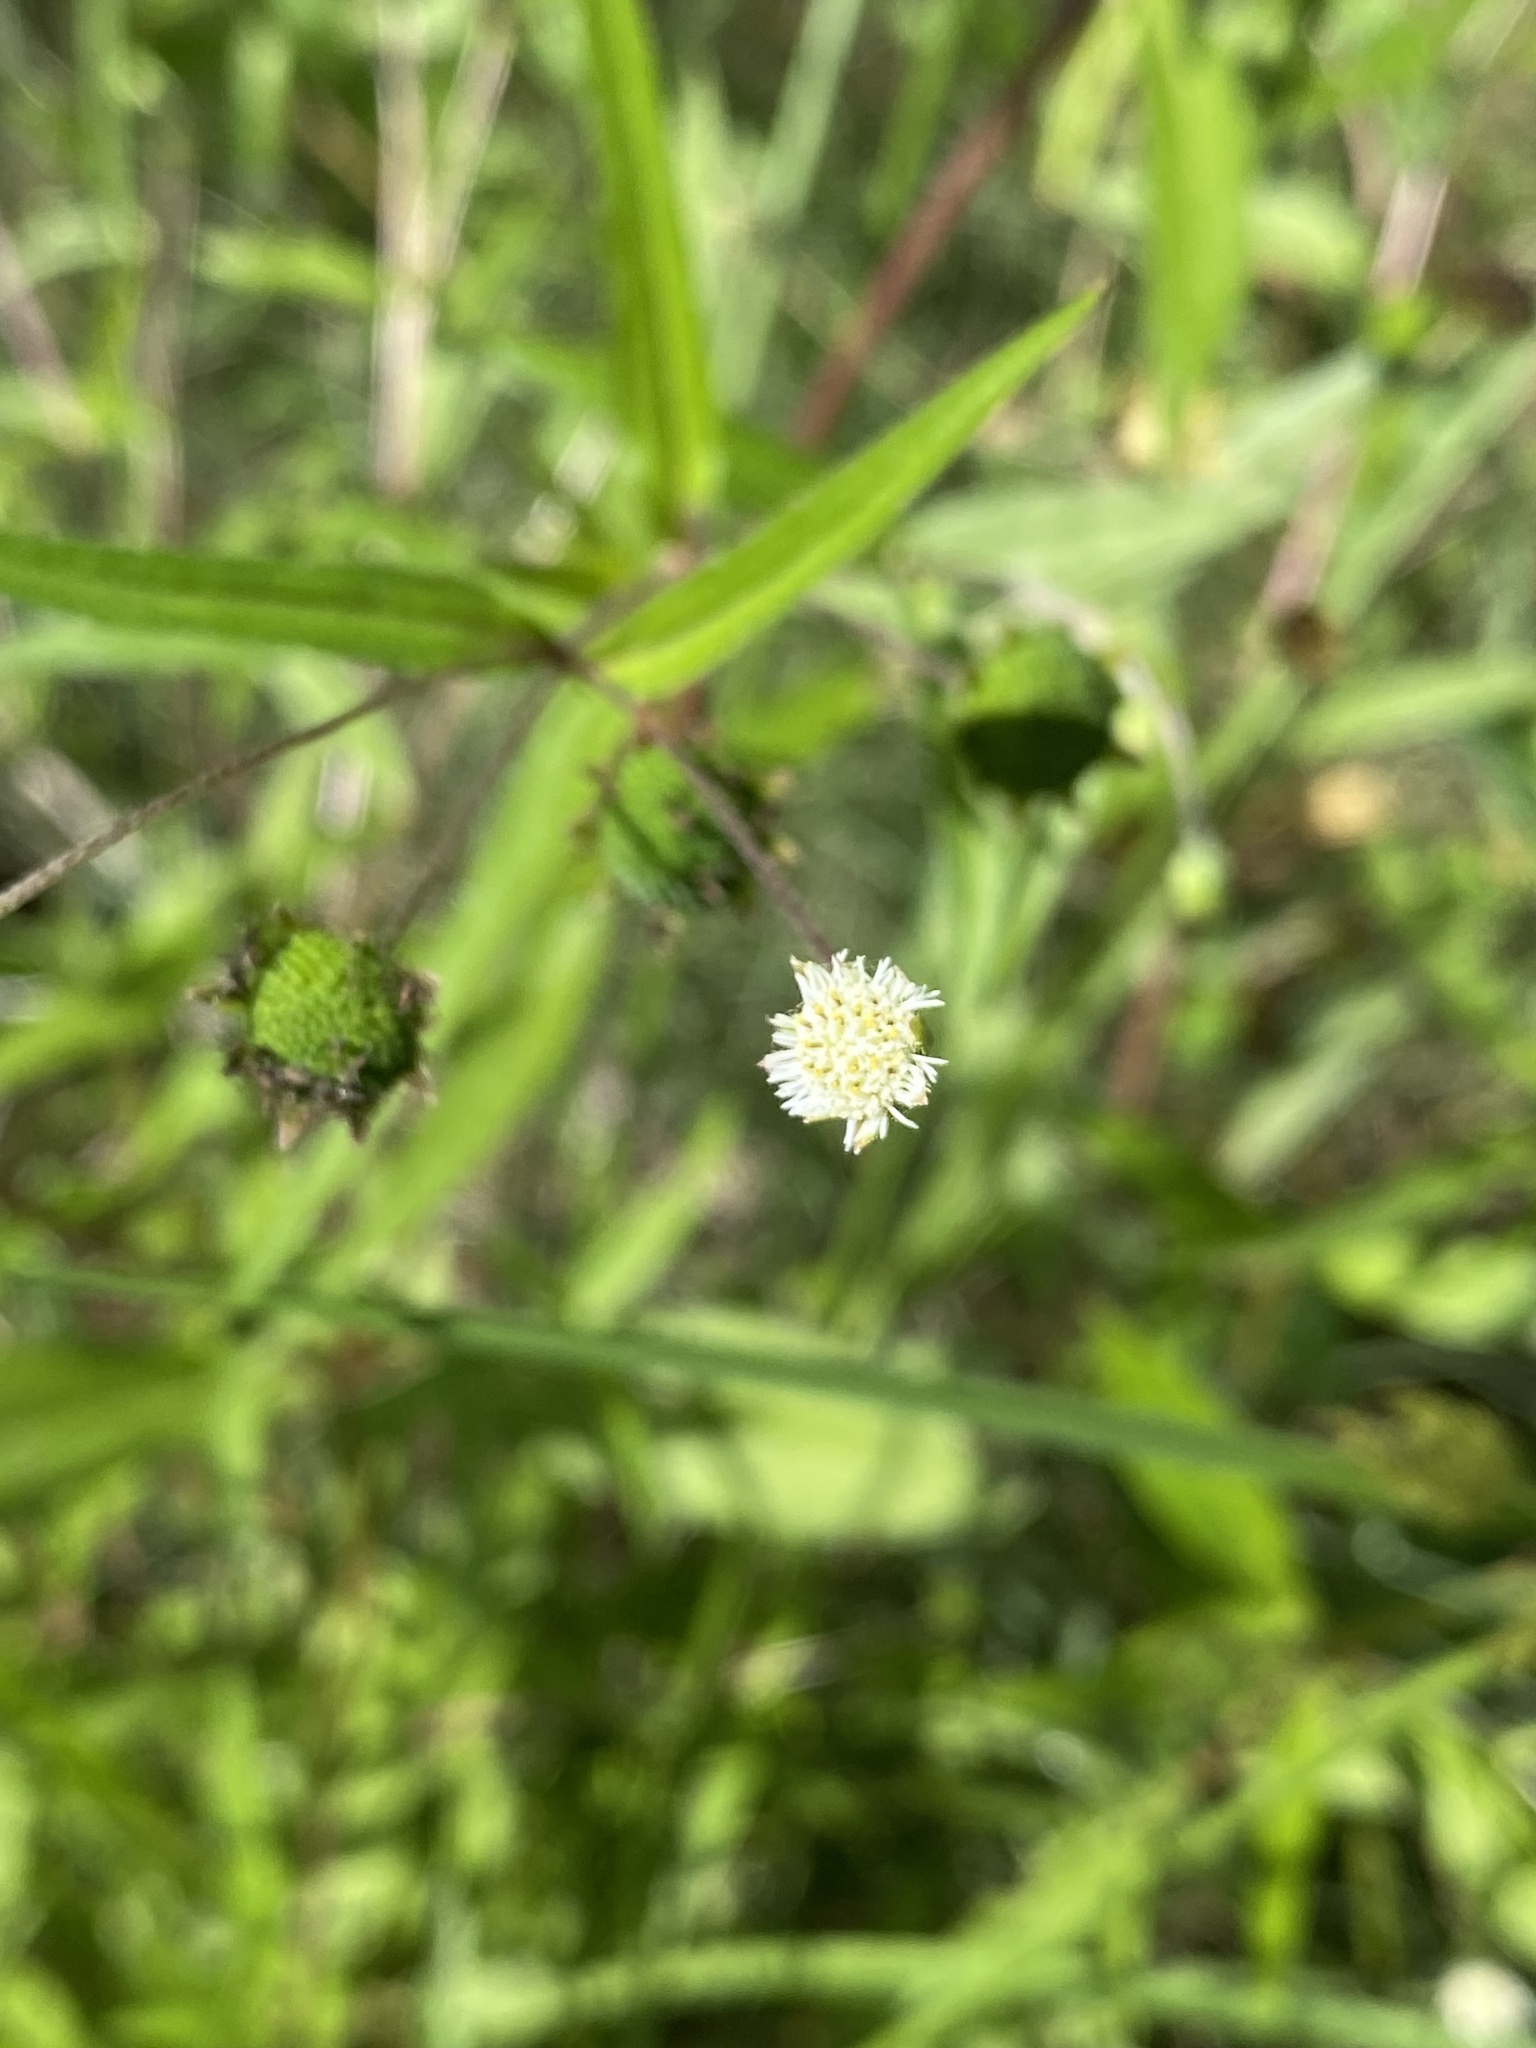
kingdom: Plantae
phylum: Tracheophyta
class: Magnoliopsida
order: Asterales
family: Asteraceae
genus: Eclipta
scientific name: Eclipta prostrata
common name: False daisy
